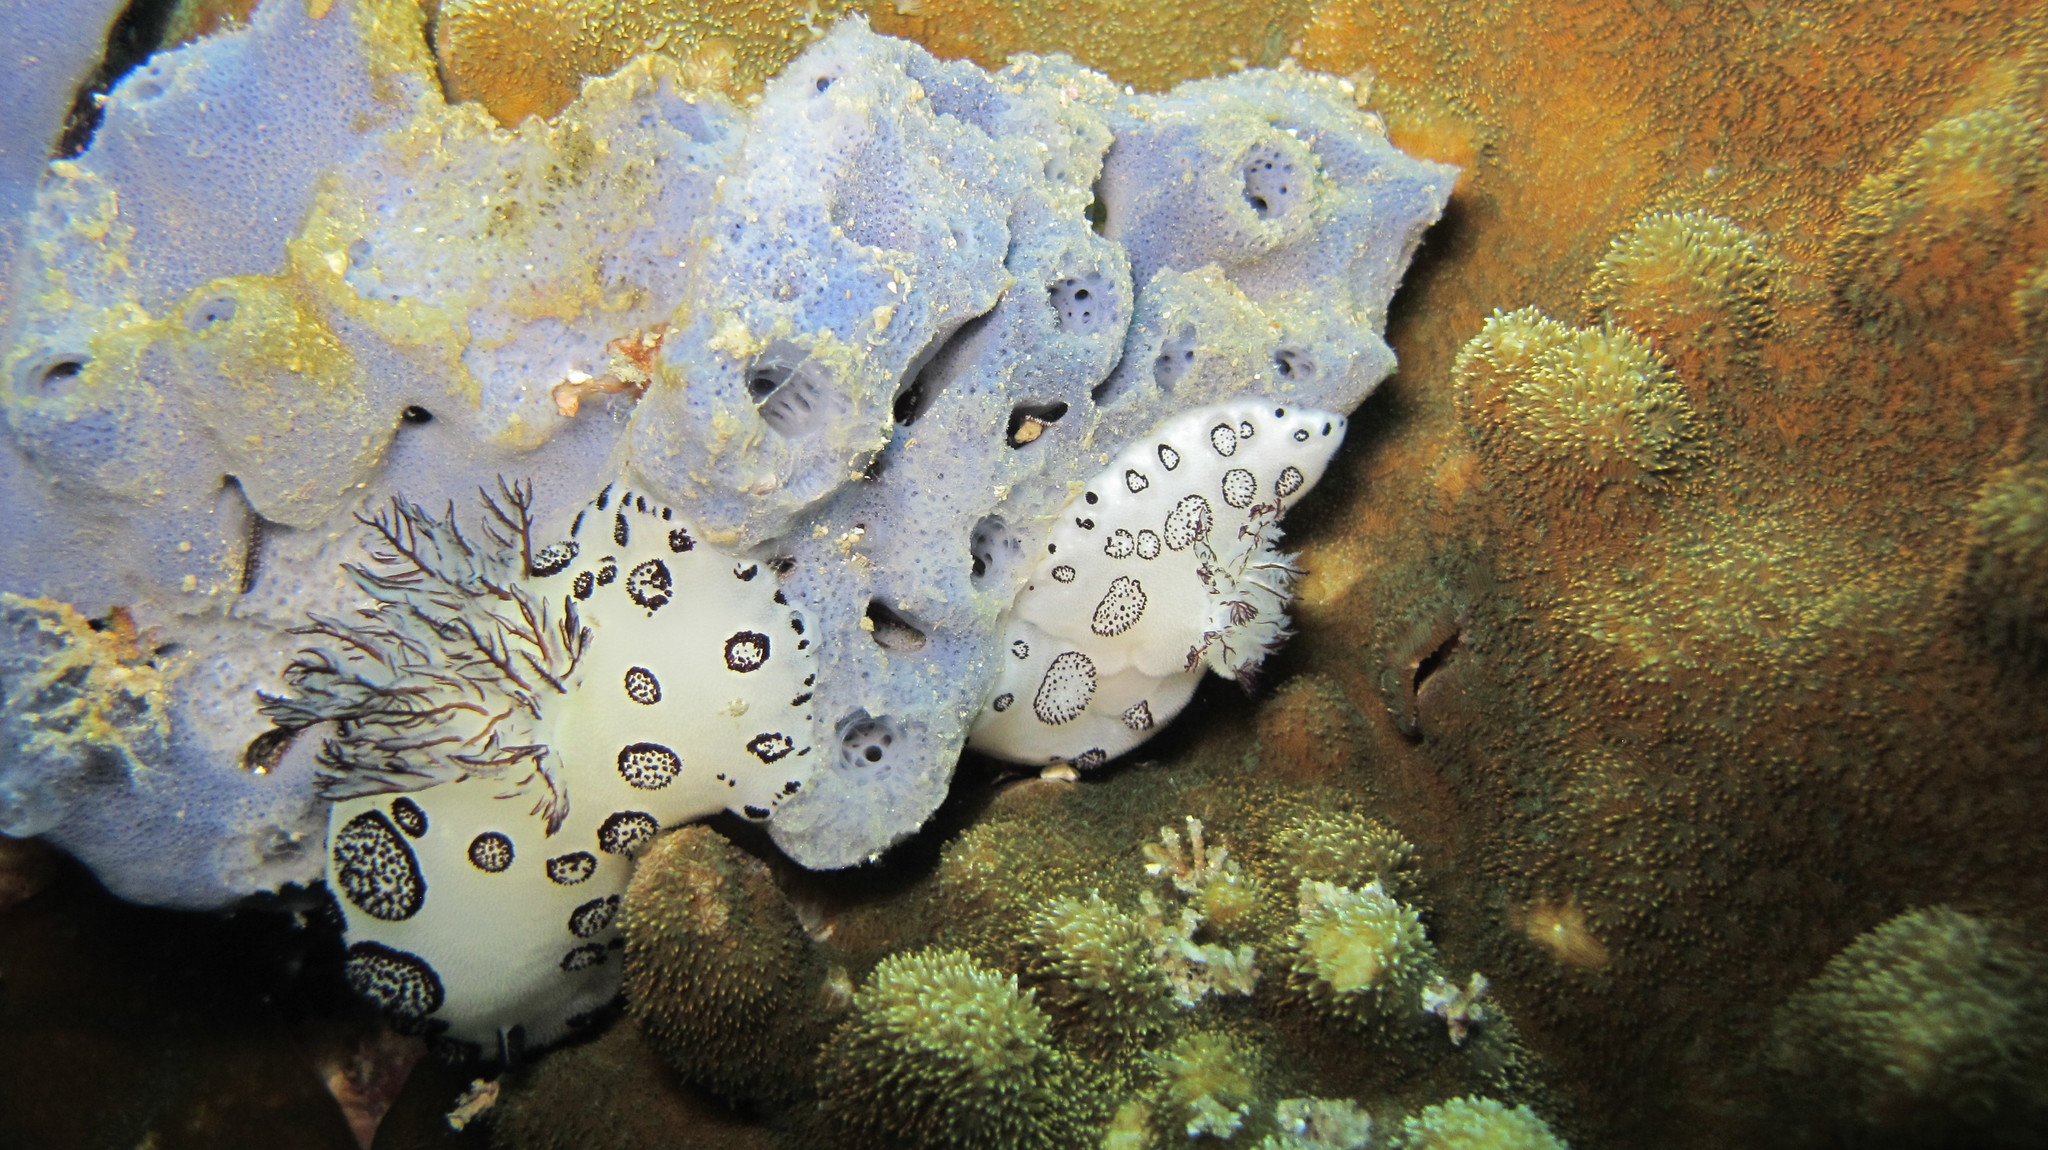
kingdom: Animalia
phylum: Mollusca
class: Gastropoda
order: Nudibranchia
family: Discodorididae
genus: Jorunna
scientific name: Jorunna funebris
